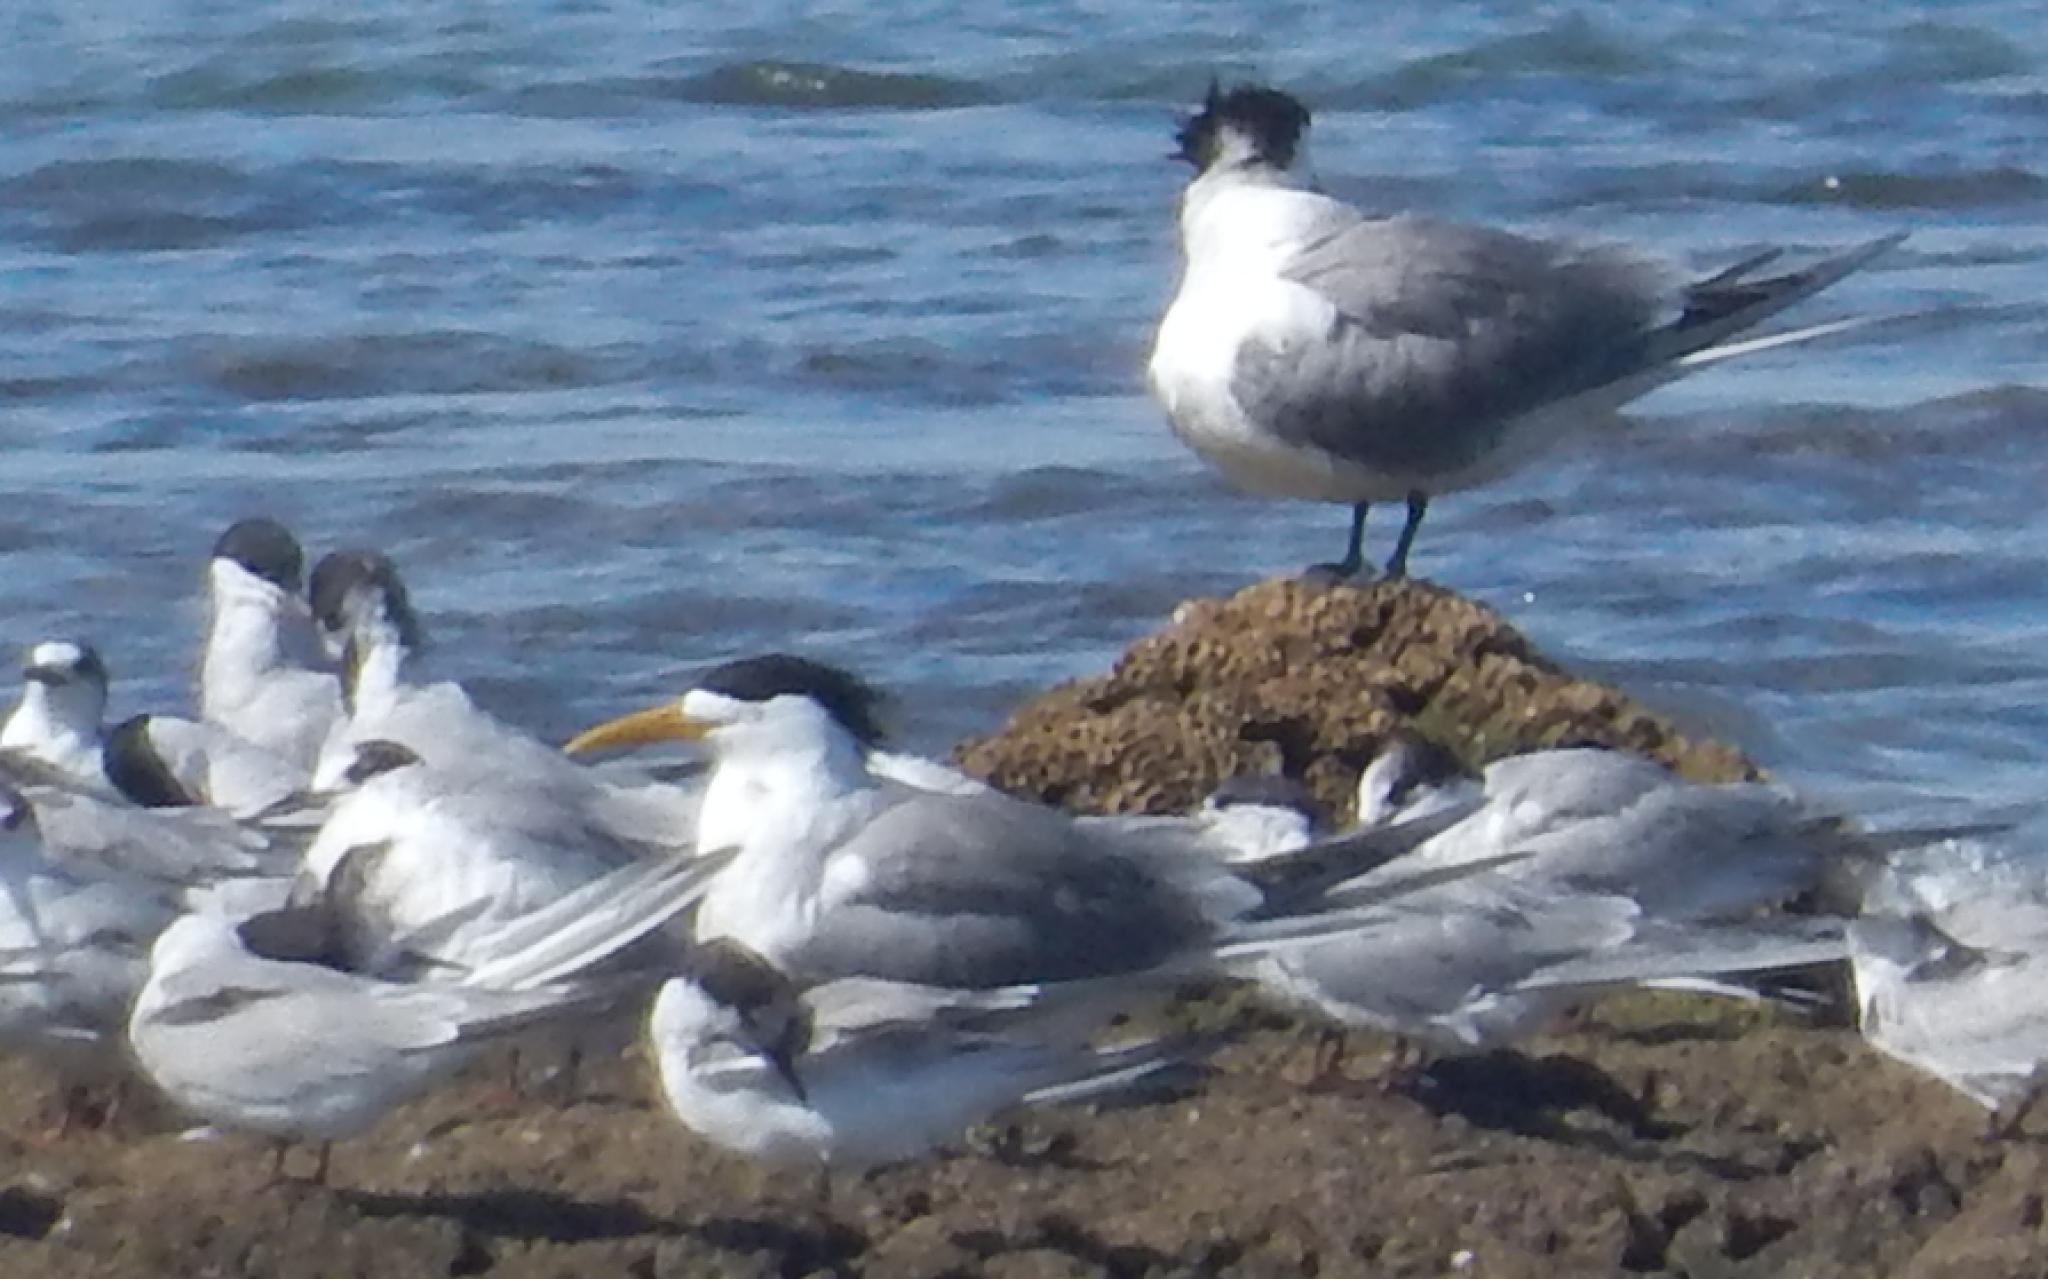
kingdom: Animalia
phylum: Chordata
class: Aves
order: Charadriiformes
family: Laridae
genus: Thalasseus
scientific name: Thalasseus bergii
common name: Greater crested tern
